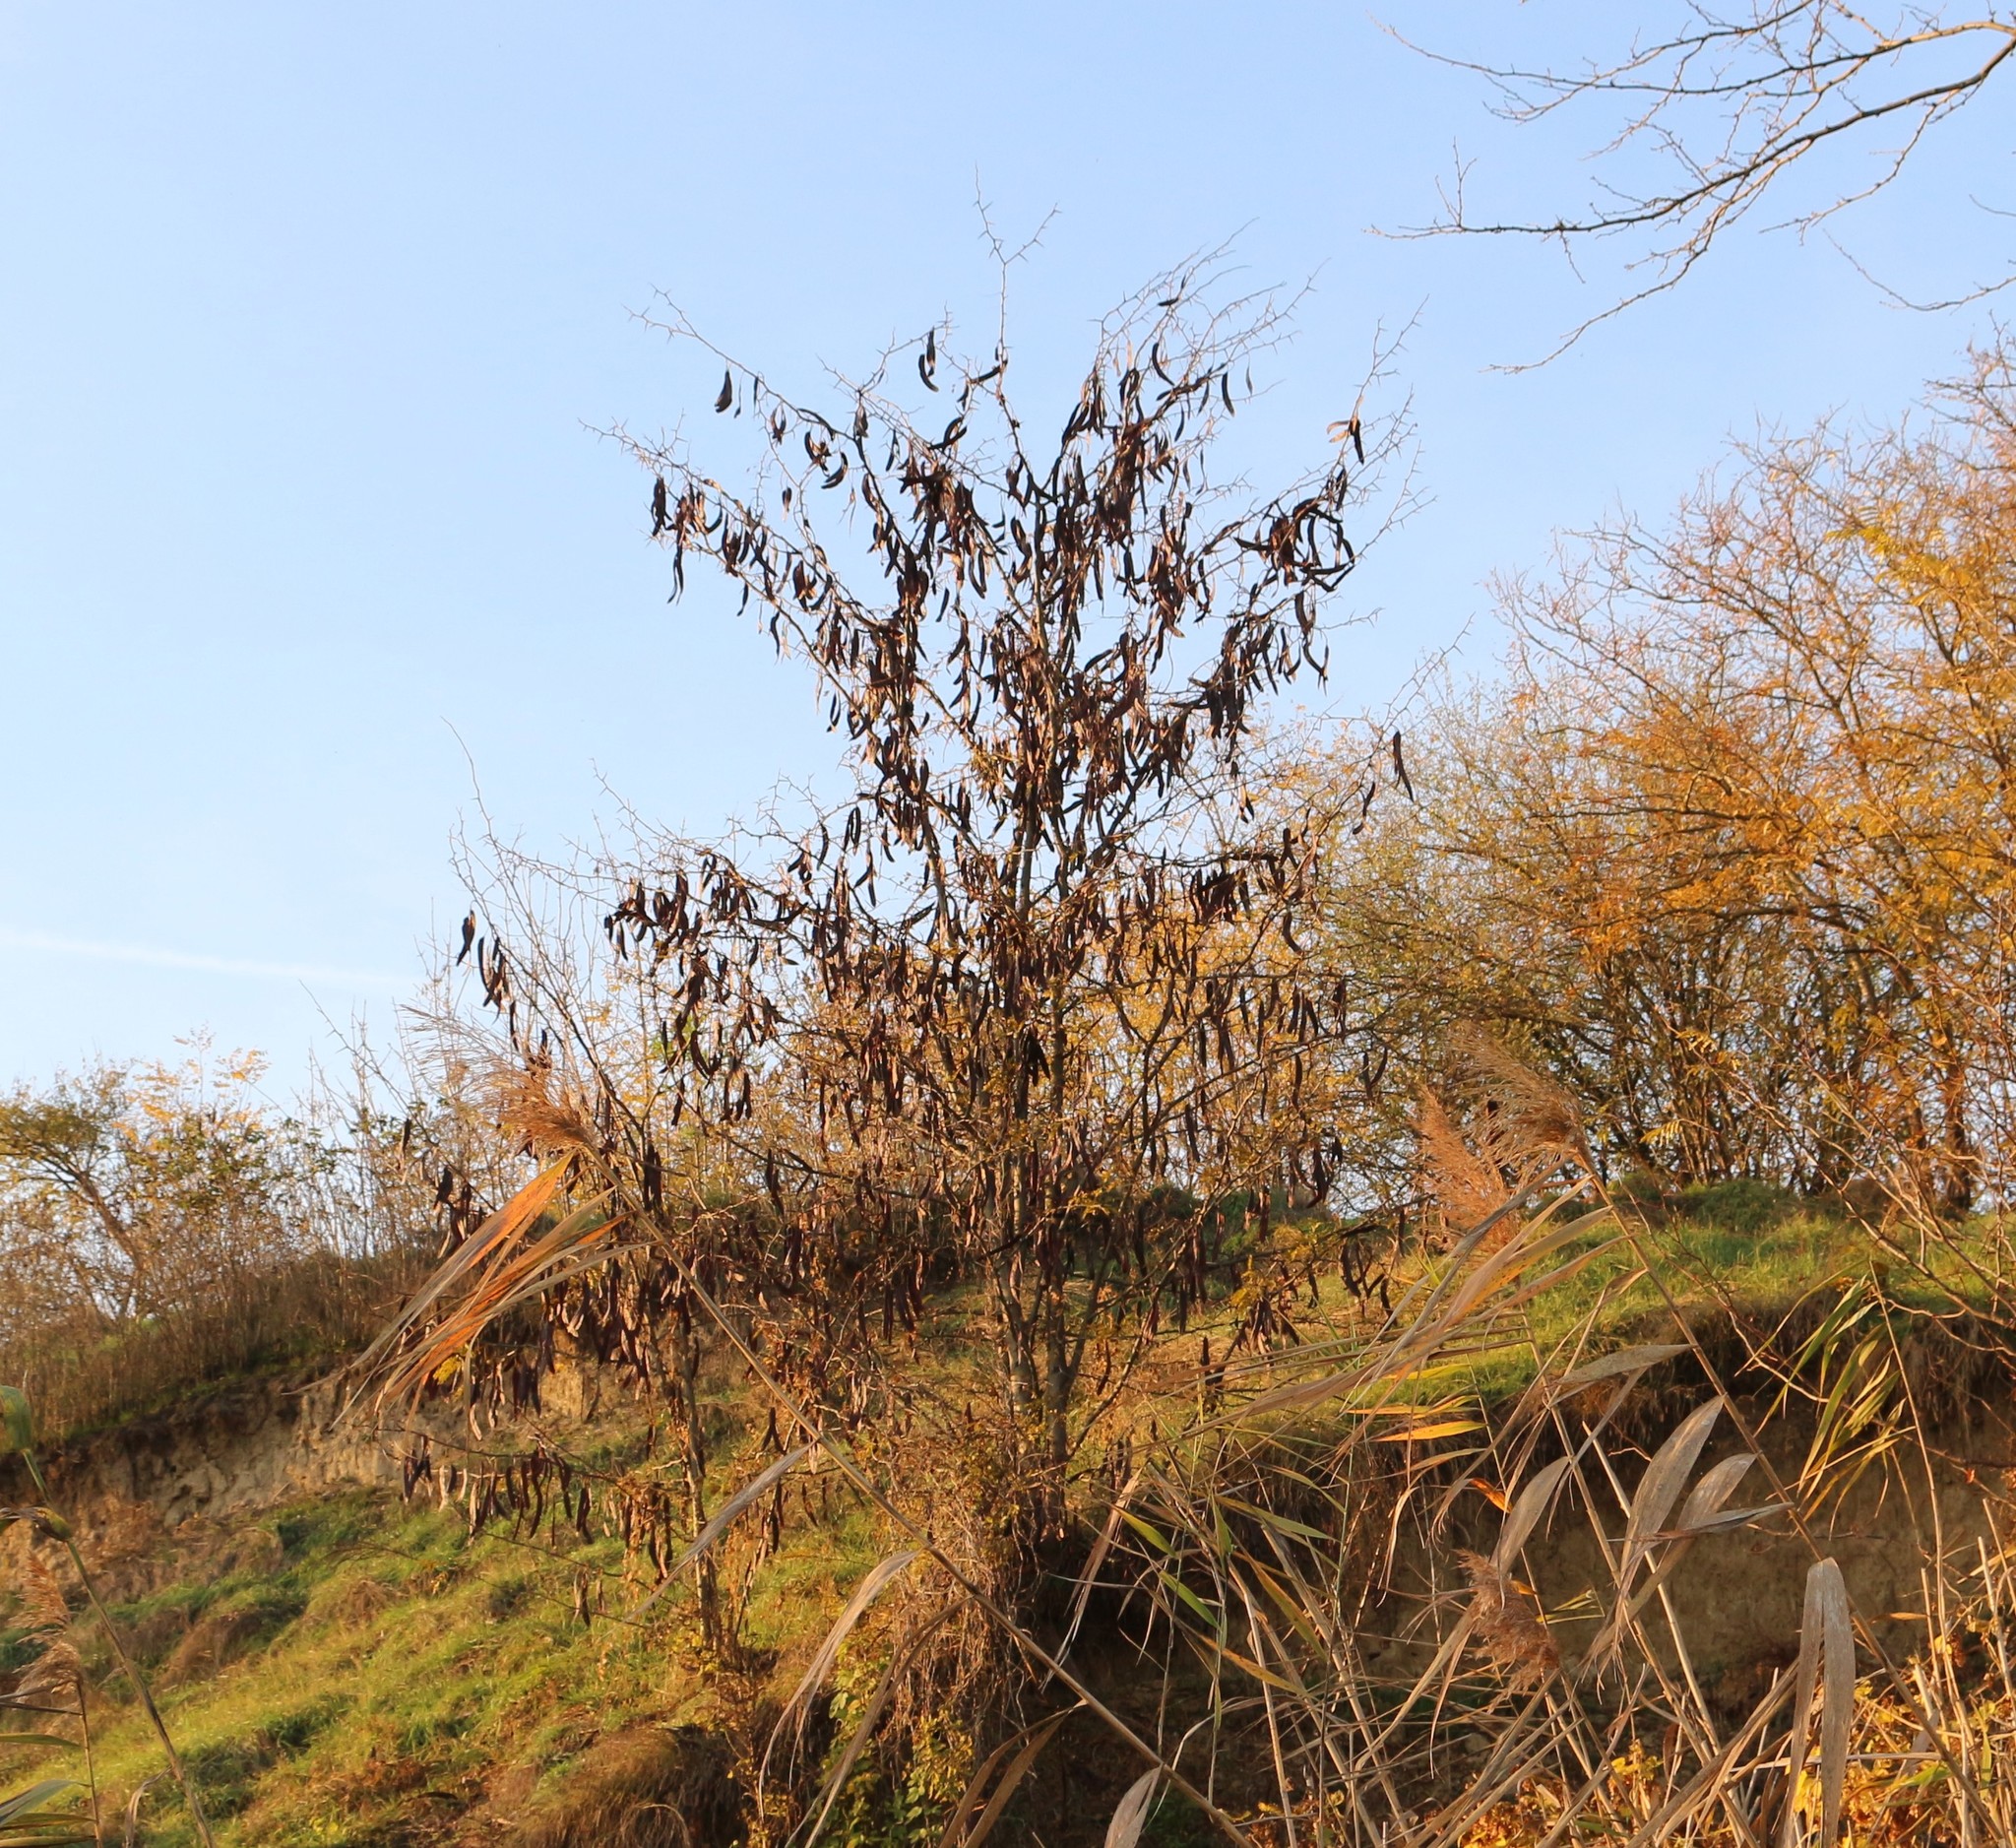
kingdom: Plantae
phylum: Tracheophyta
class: Magnoliopsida
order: Fabales
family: Fabaceae
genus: Gleditsia
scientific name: Gleditsia triacanthos
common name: Common honeylocust
